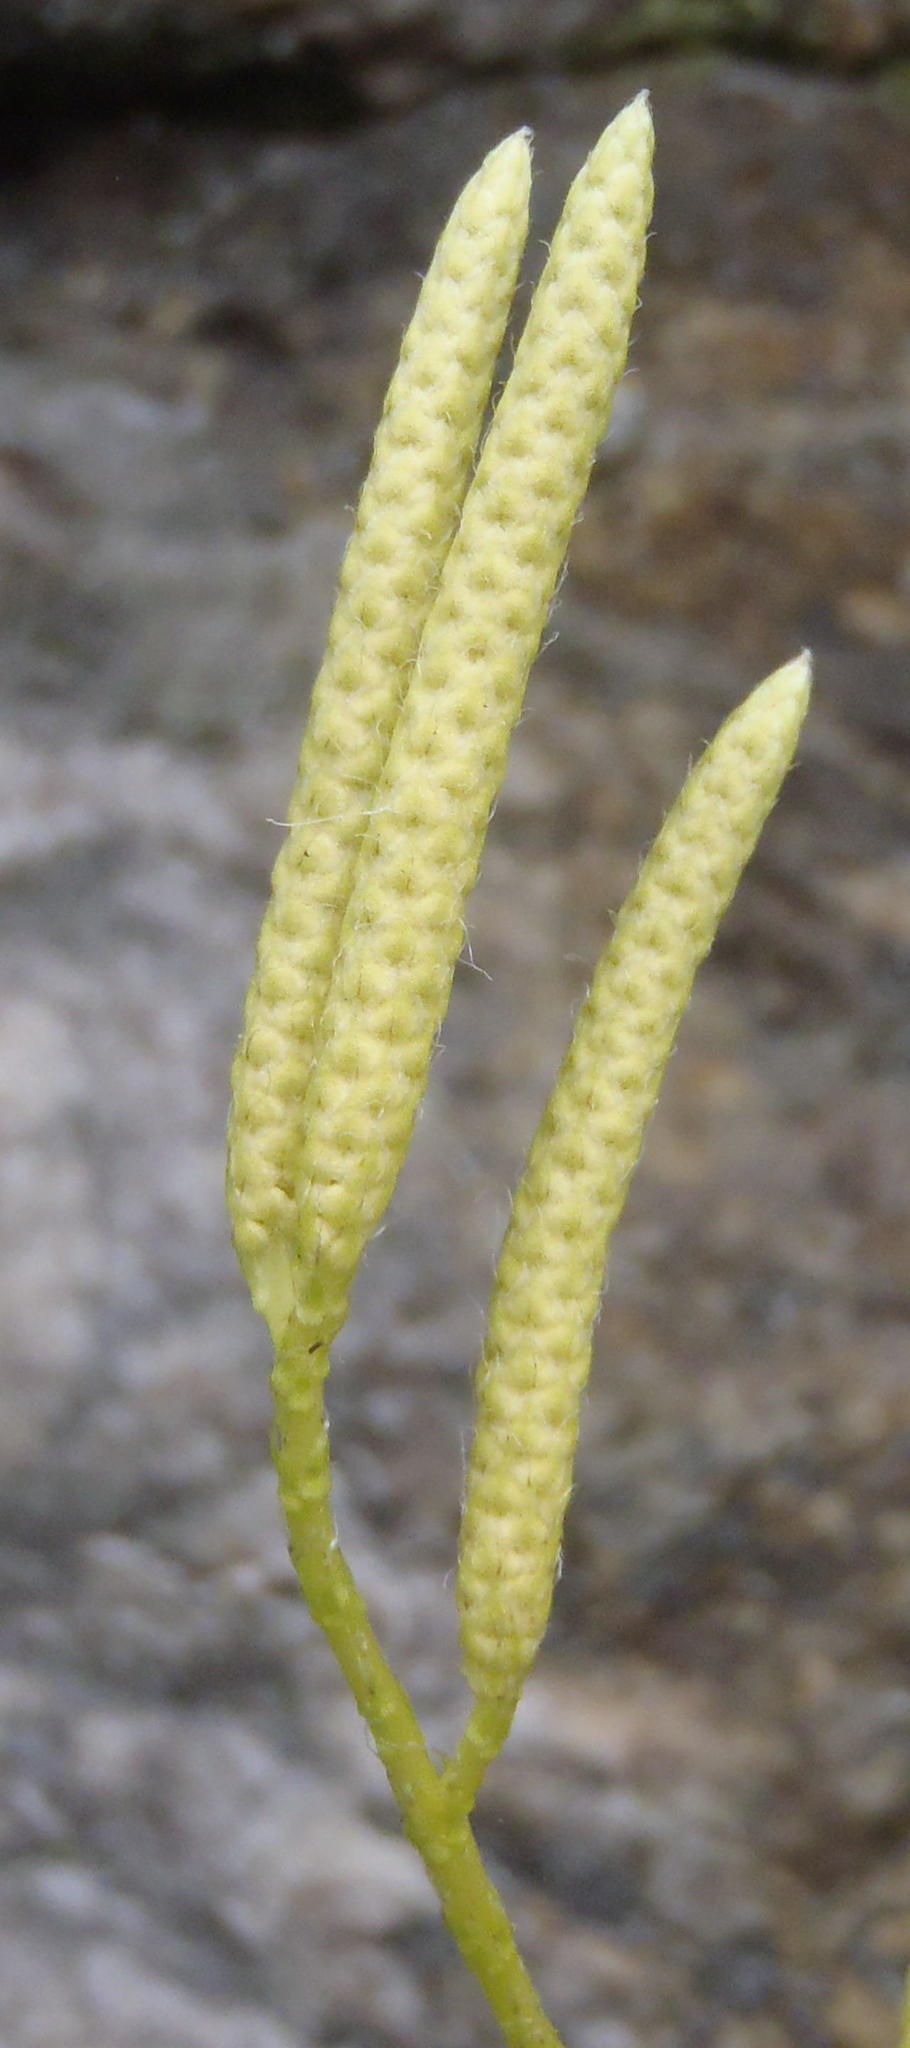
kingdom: Plantae
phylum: Tracheophyta
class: Lycopodiopsida
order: Lycopodiales
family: Lycopodiaceae
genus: Lycopodium
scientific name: Lycopodium clavatum
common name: Stag's-horn clubmoss
